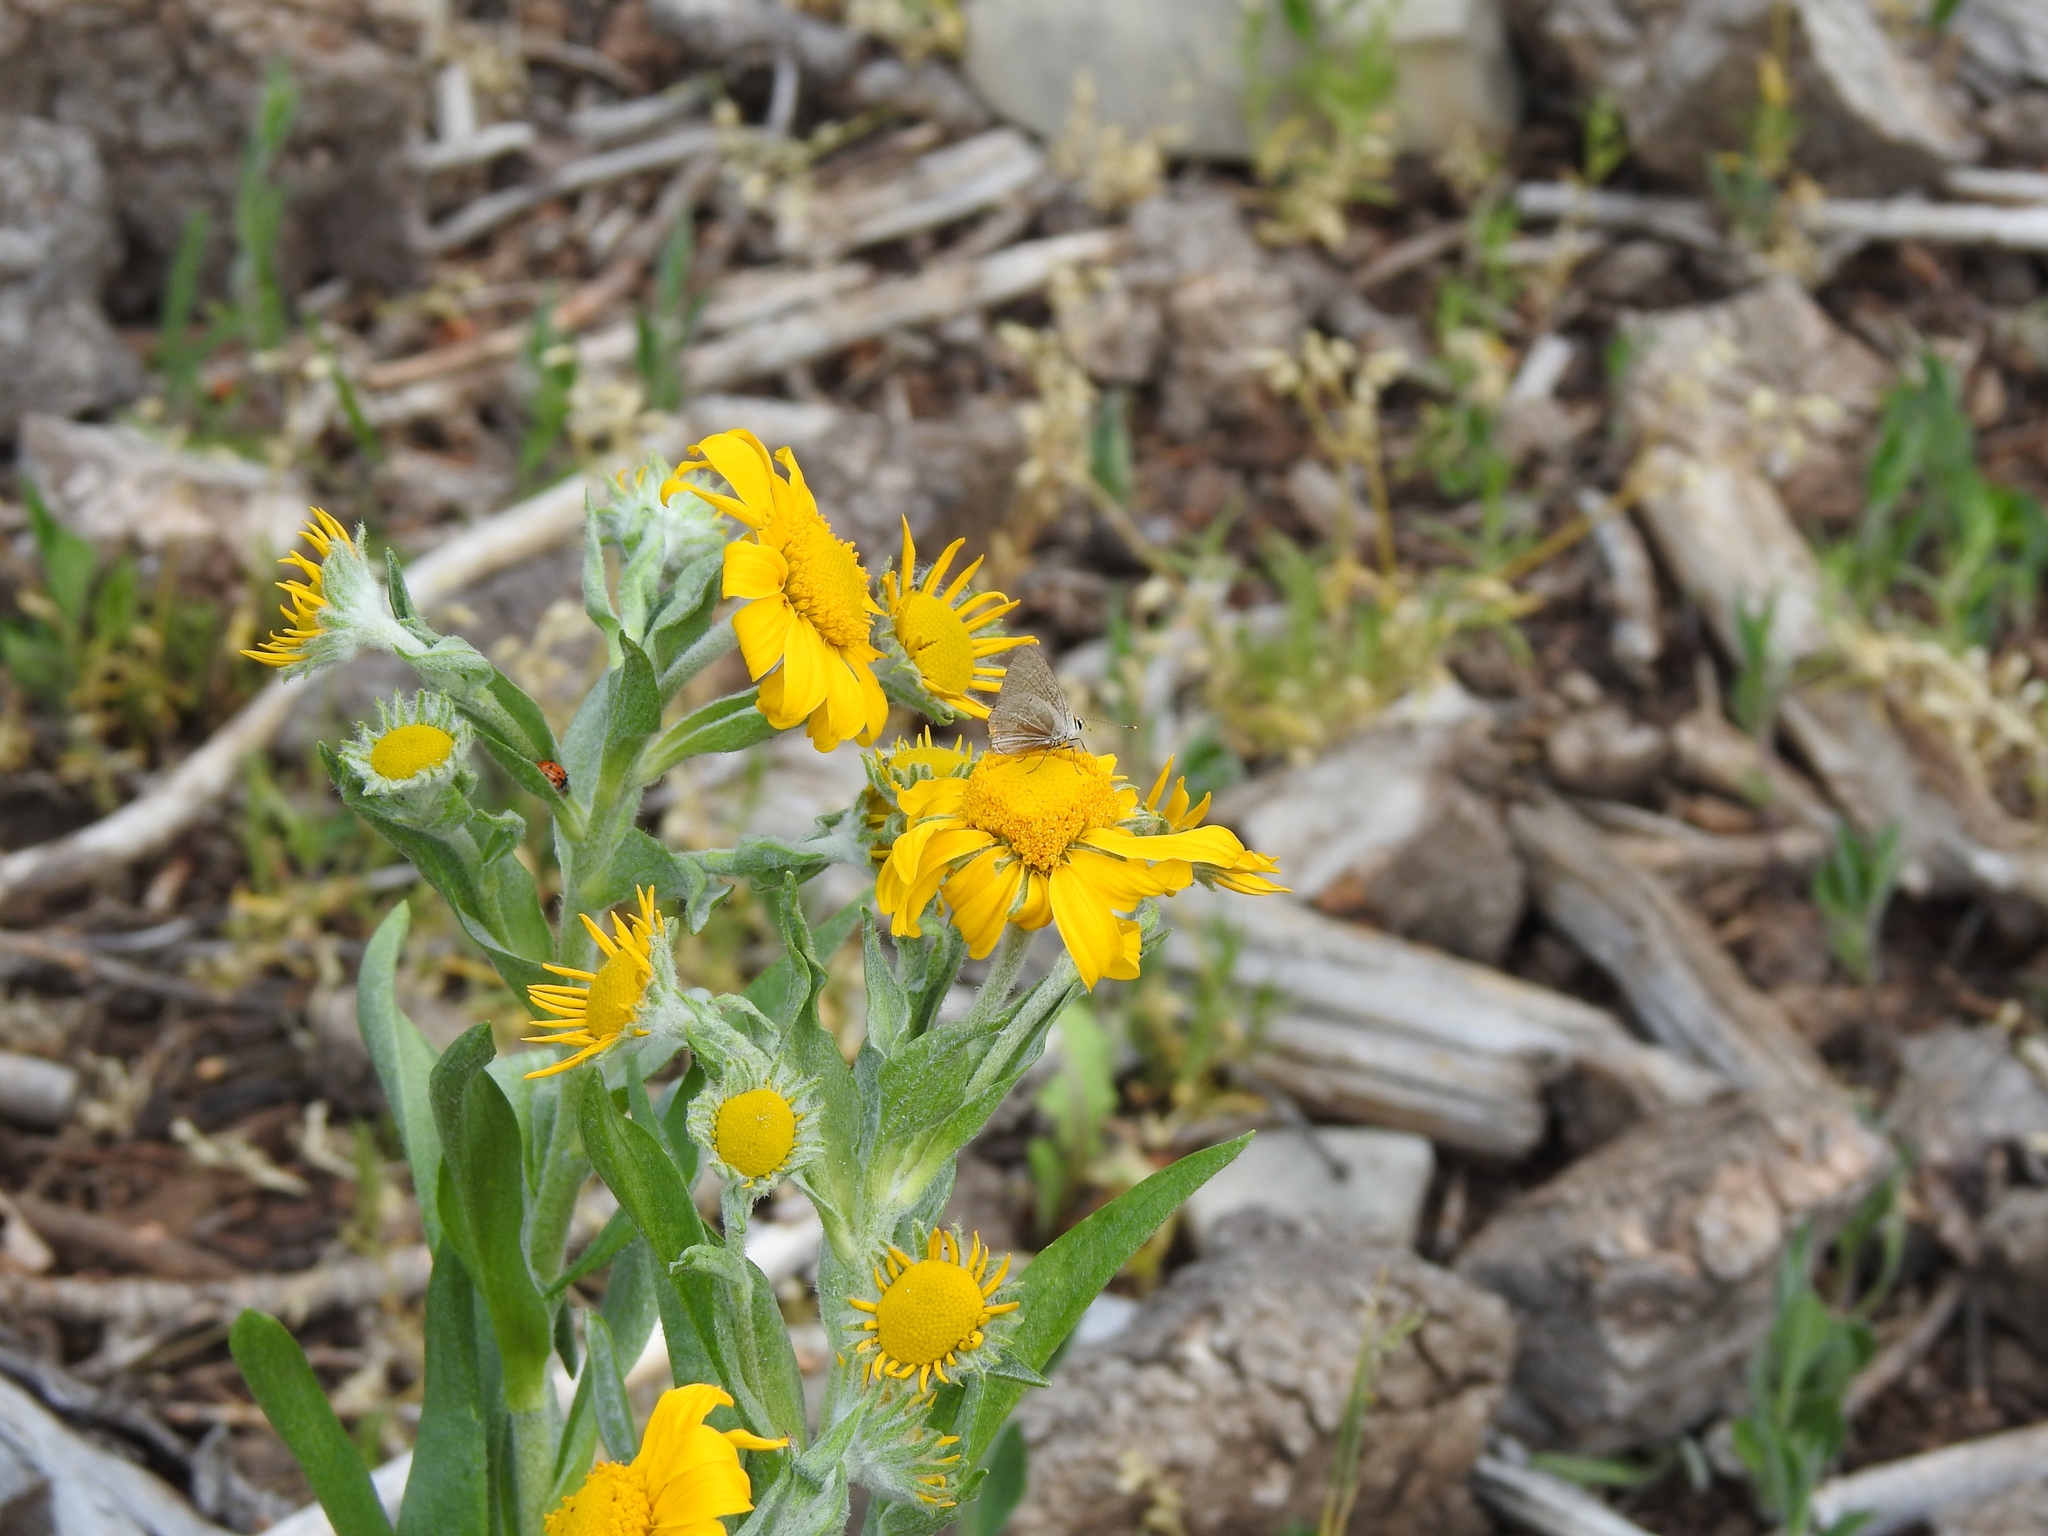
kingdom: Plantae
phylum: Tracheophyta
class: Magnoliopsida
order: Asterales
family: Asteraceae
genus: Hymenoxys
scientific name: Hymenoxys hoopesii
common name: Orange-sneezeweed
